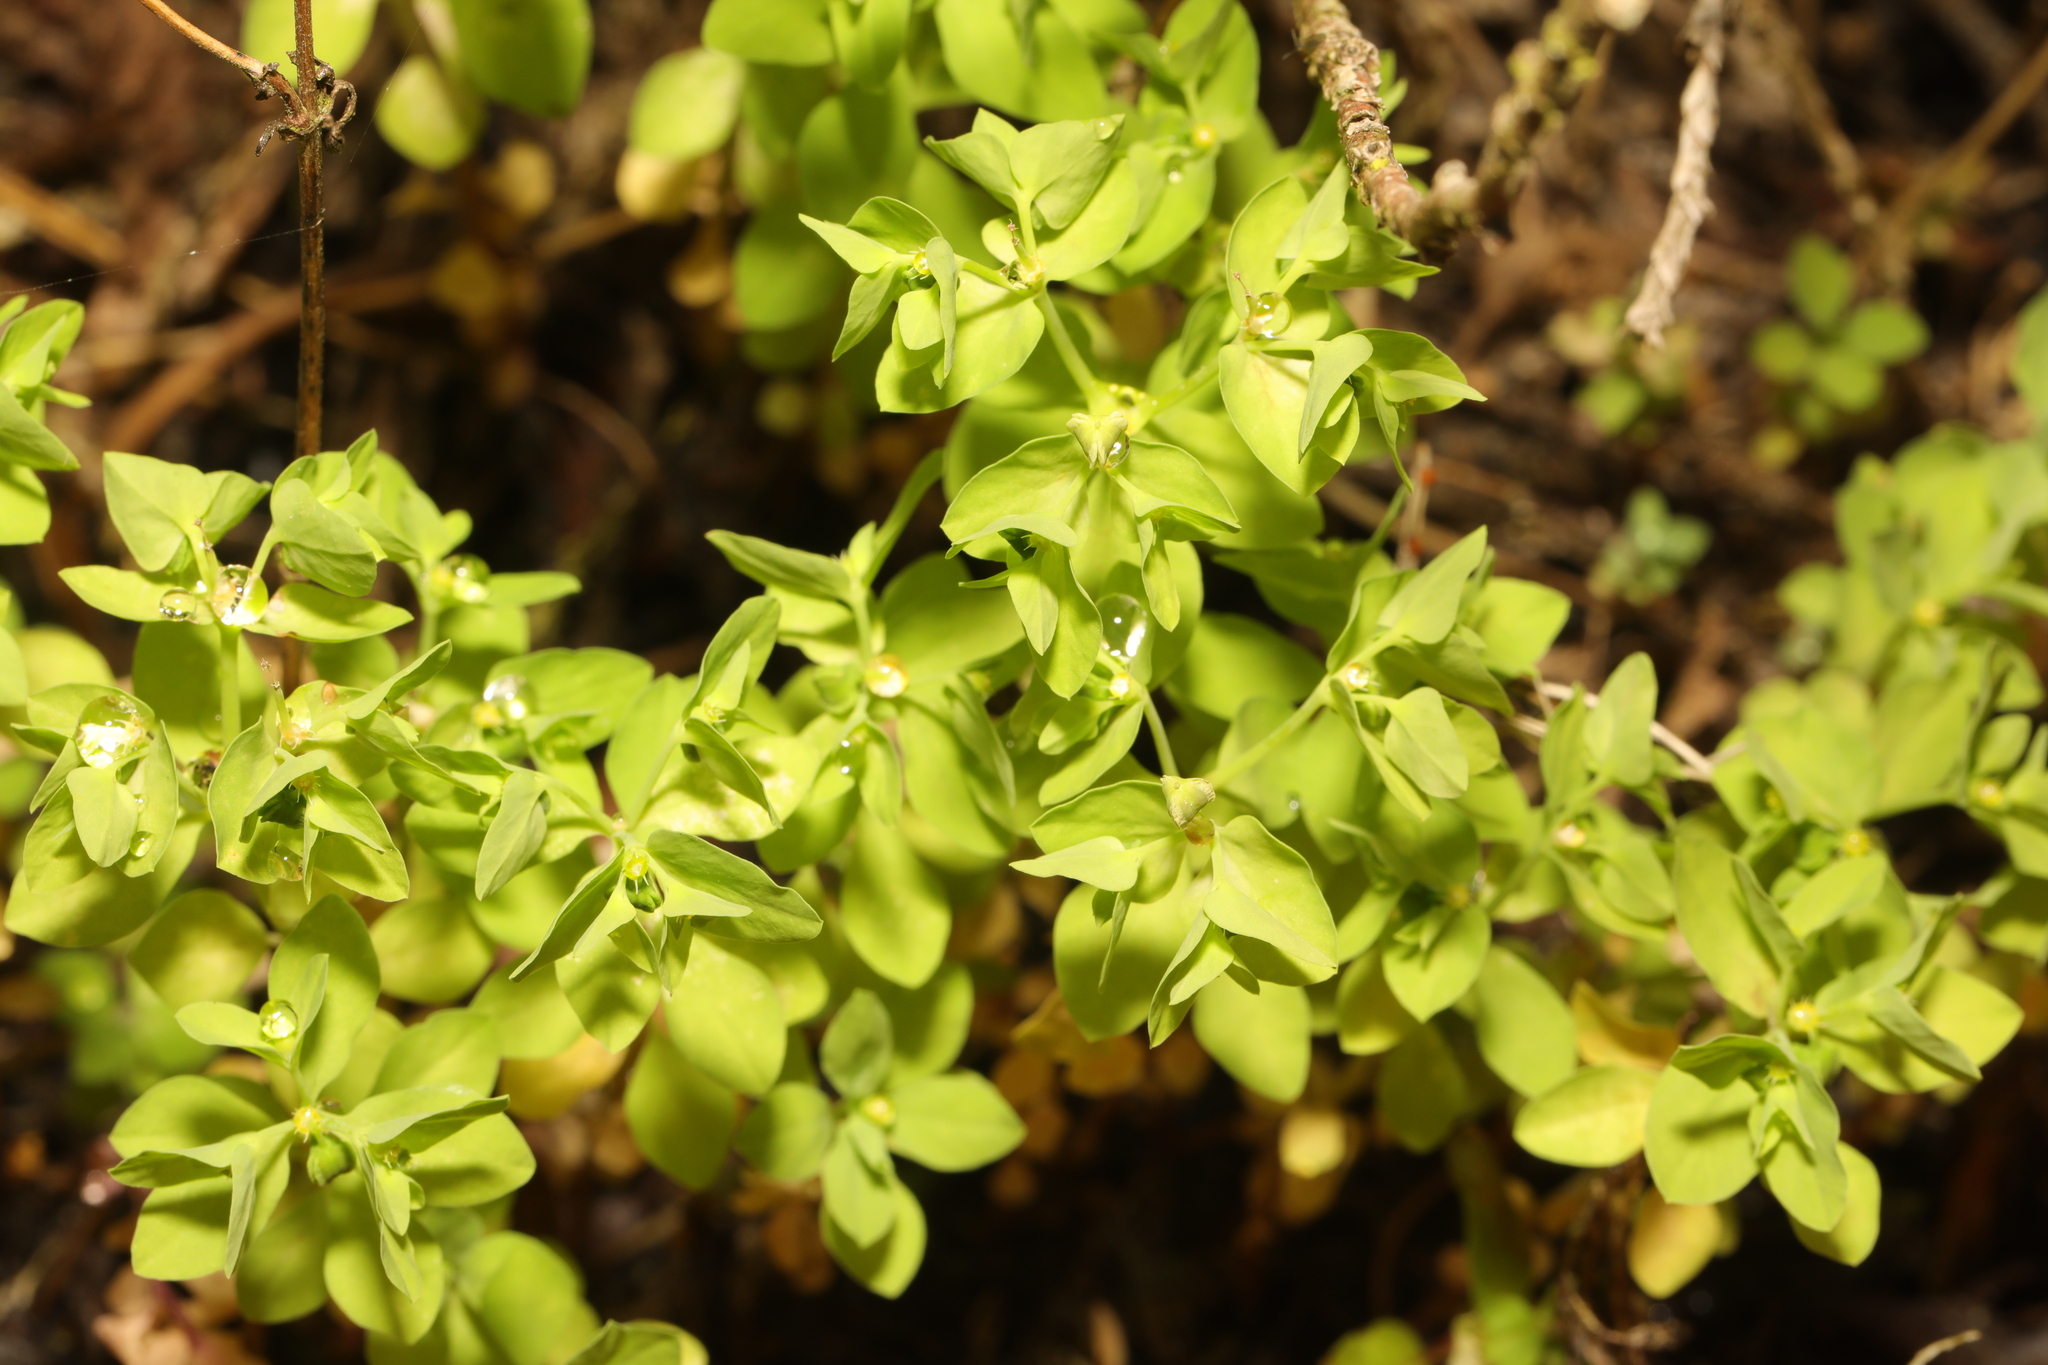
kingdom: Plantae
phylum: Tracheophyta
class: Magnoliopsida
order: Malpighiales
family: Euphorbiaceae
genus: Euphorbia
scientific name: Euphorbia peplus
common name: Petty spurge
